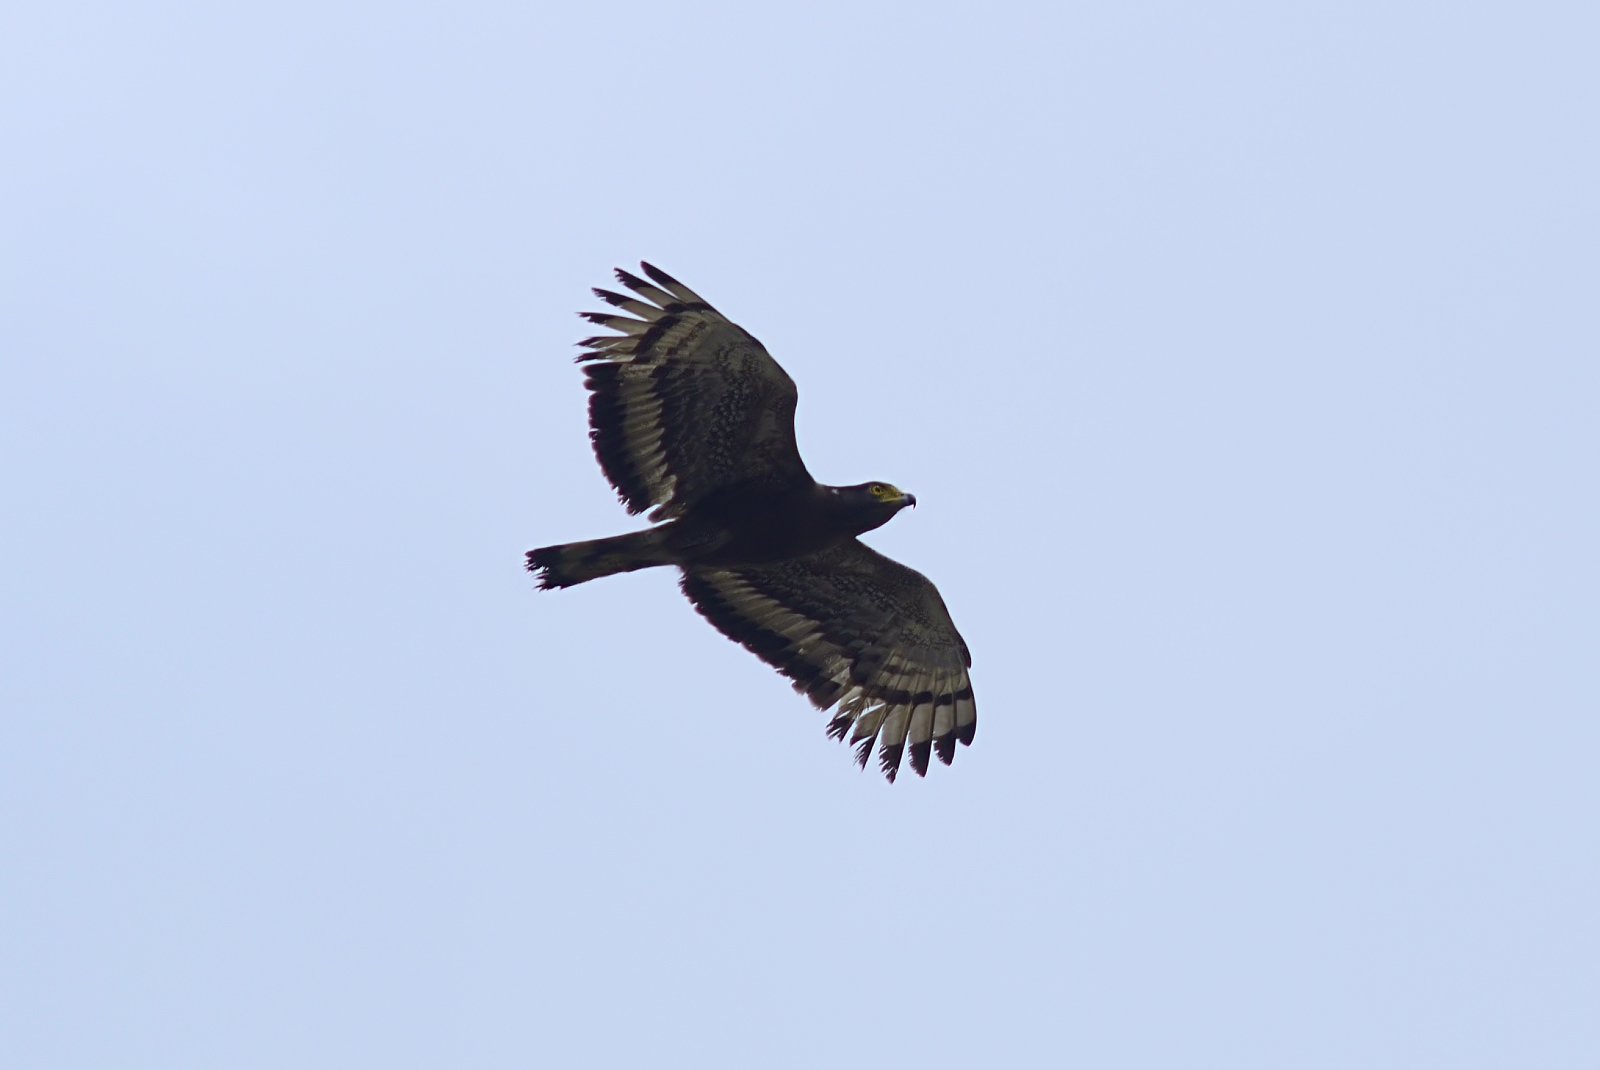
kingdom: Animalia
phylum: Chordata
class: Aves
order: Accipitriformes
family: Accipitridae
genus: Spilornis
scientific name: Spilornis cheela
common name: Crested serpent eagle
